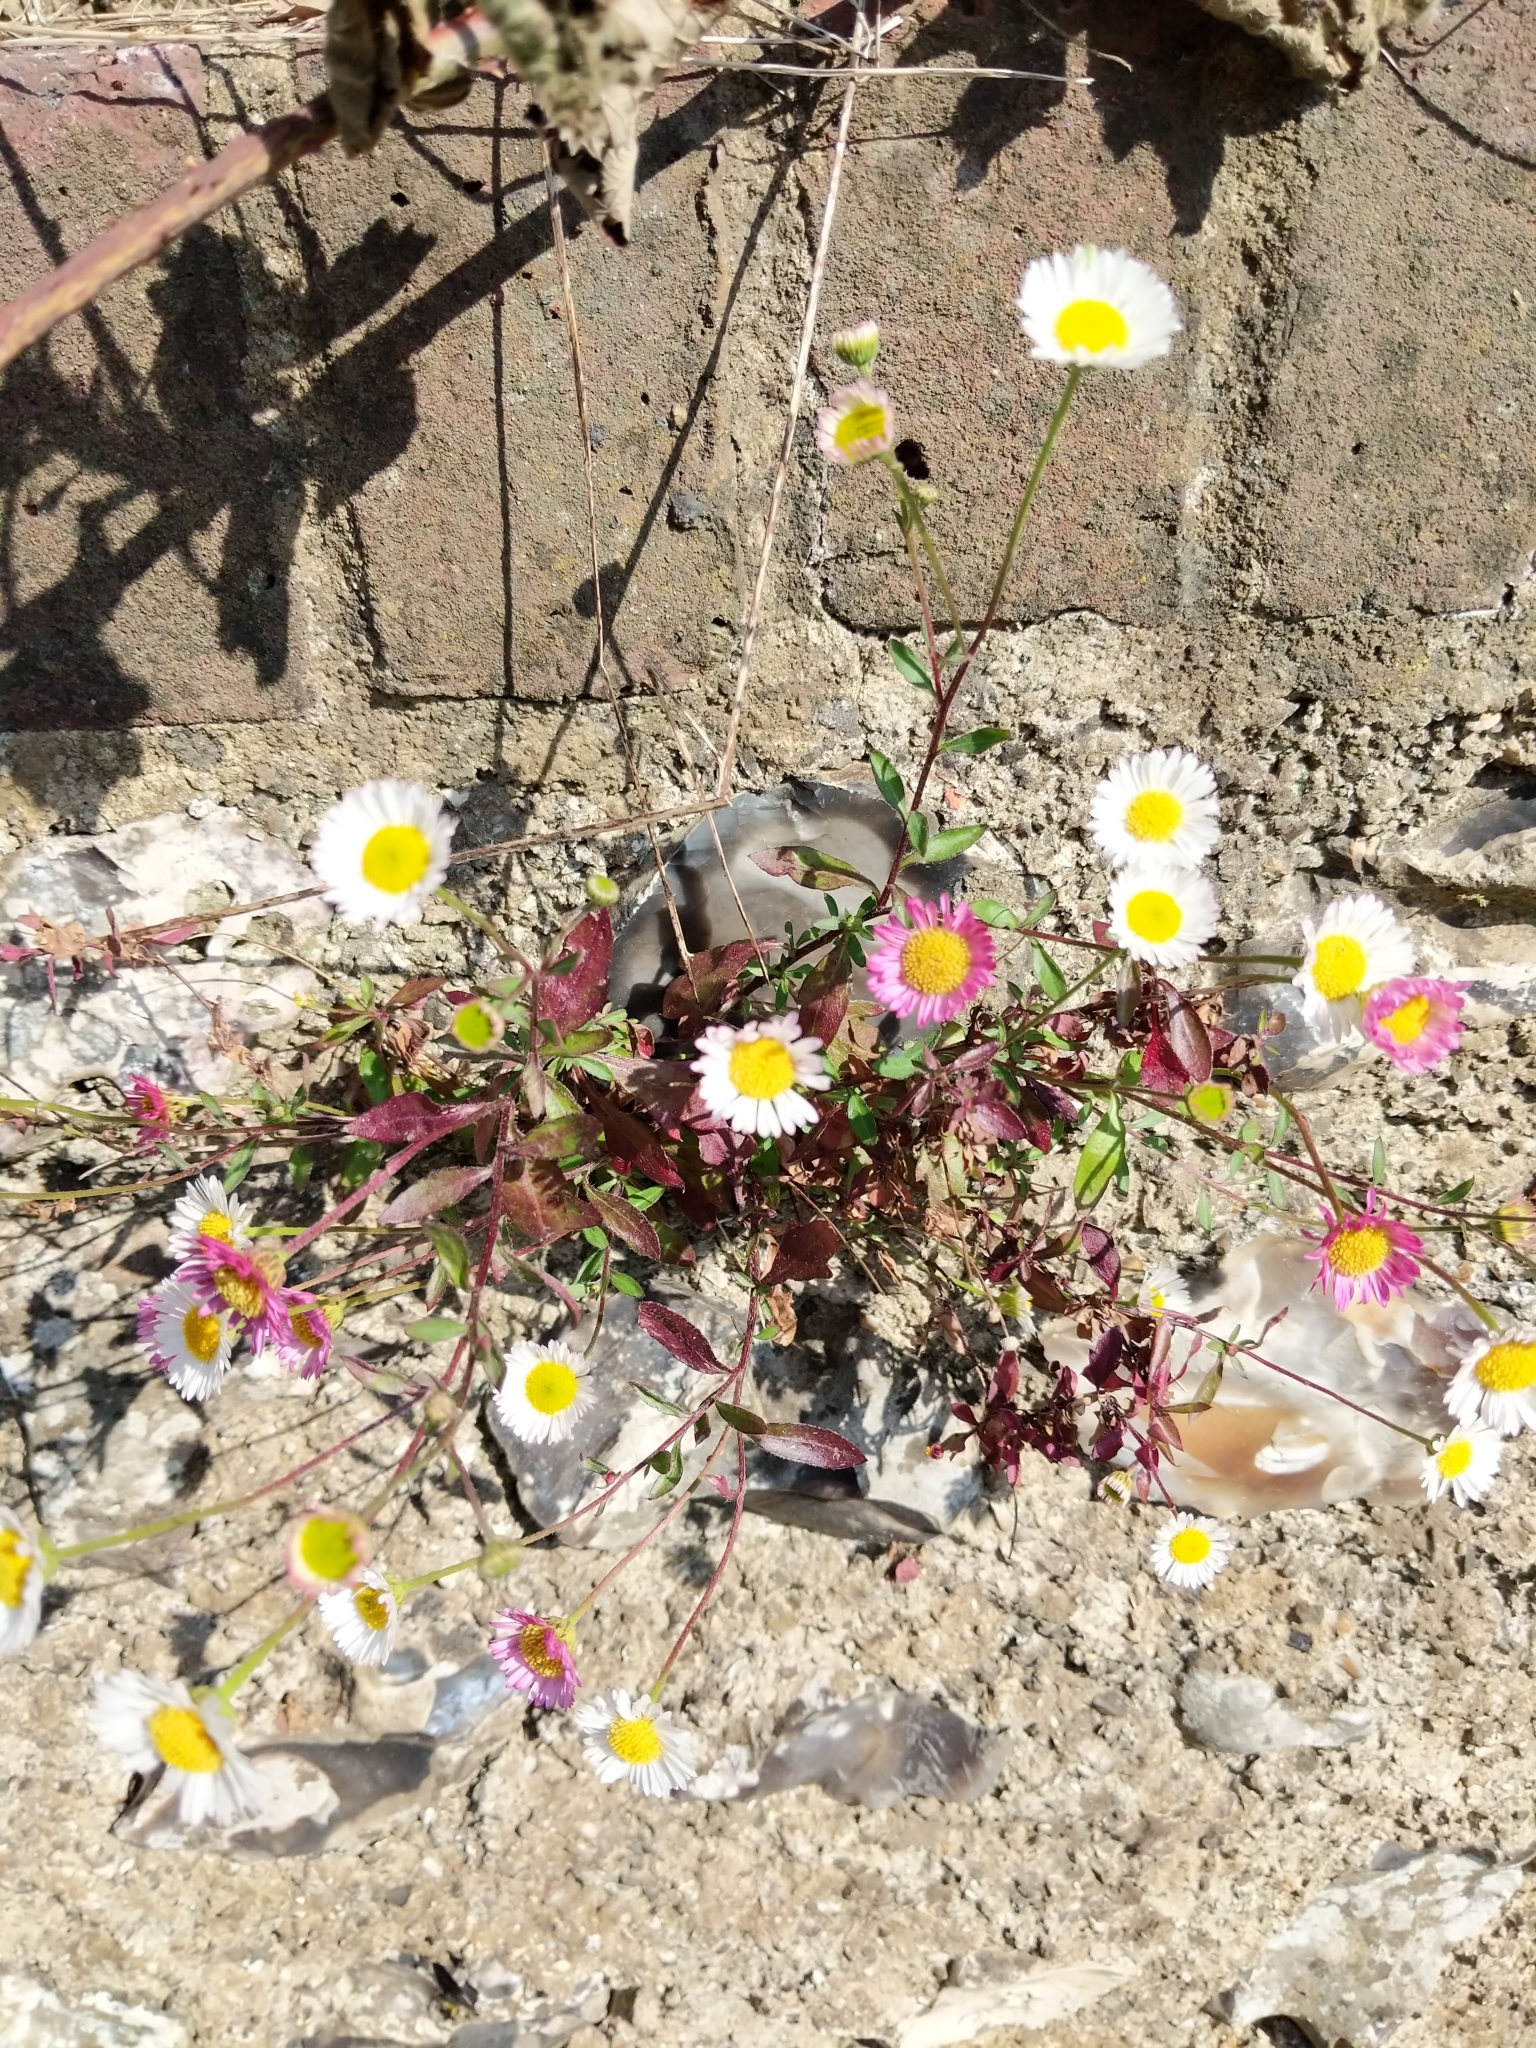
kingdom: Plantae
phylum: Tracheophyta
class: Magnoliopsida
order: Asterales
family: Asteraceae
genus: Erigeron
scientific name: Erigeron karvinskianus
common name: Mexican fleabane
